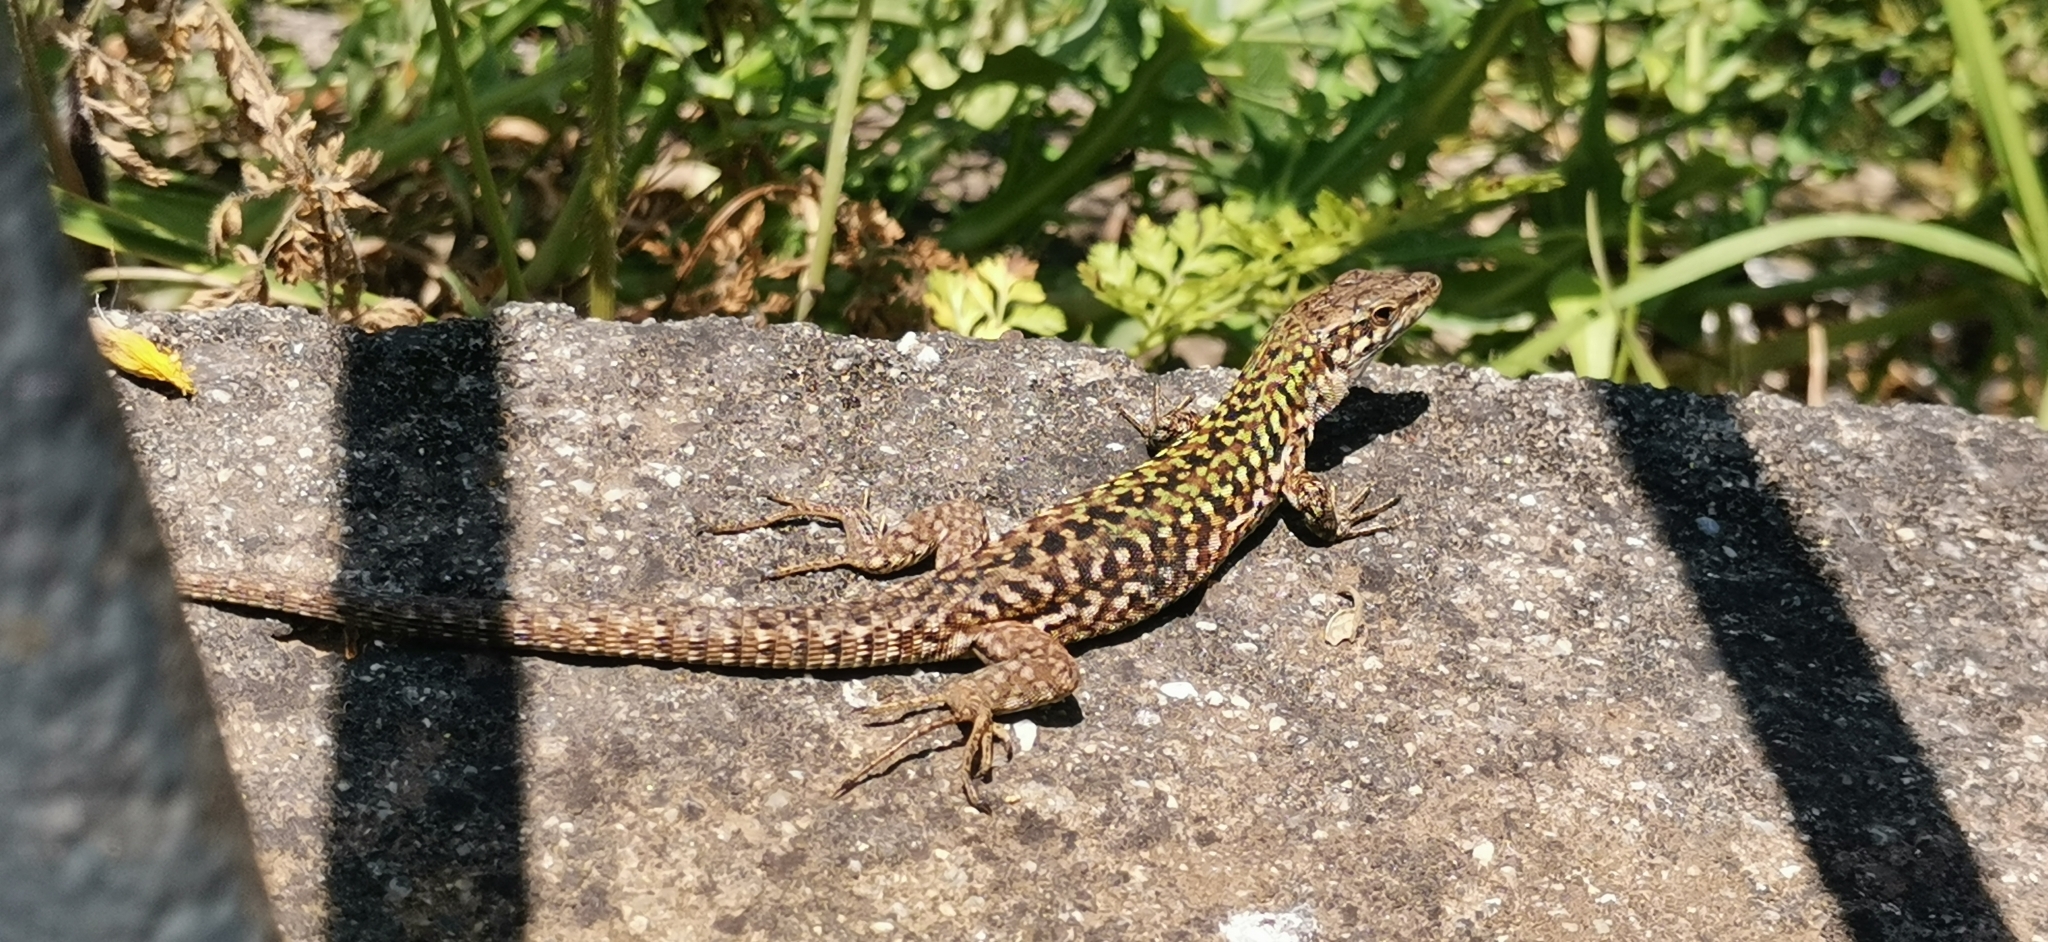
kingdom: Animalia
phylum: Chordata
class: Squamata
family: Lacertidae
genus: Podarcis
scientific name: Podarcis siculus
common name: Italian wall lizard
